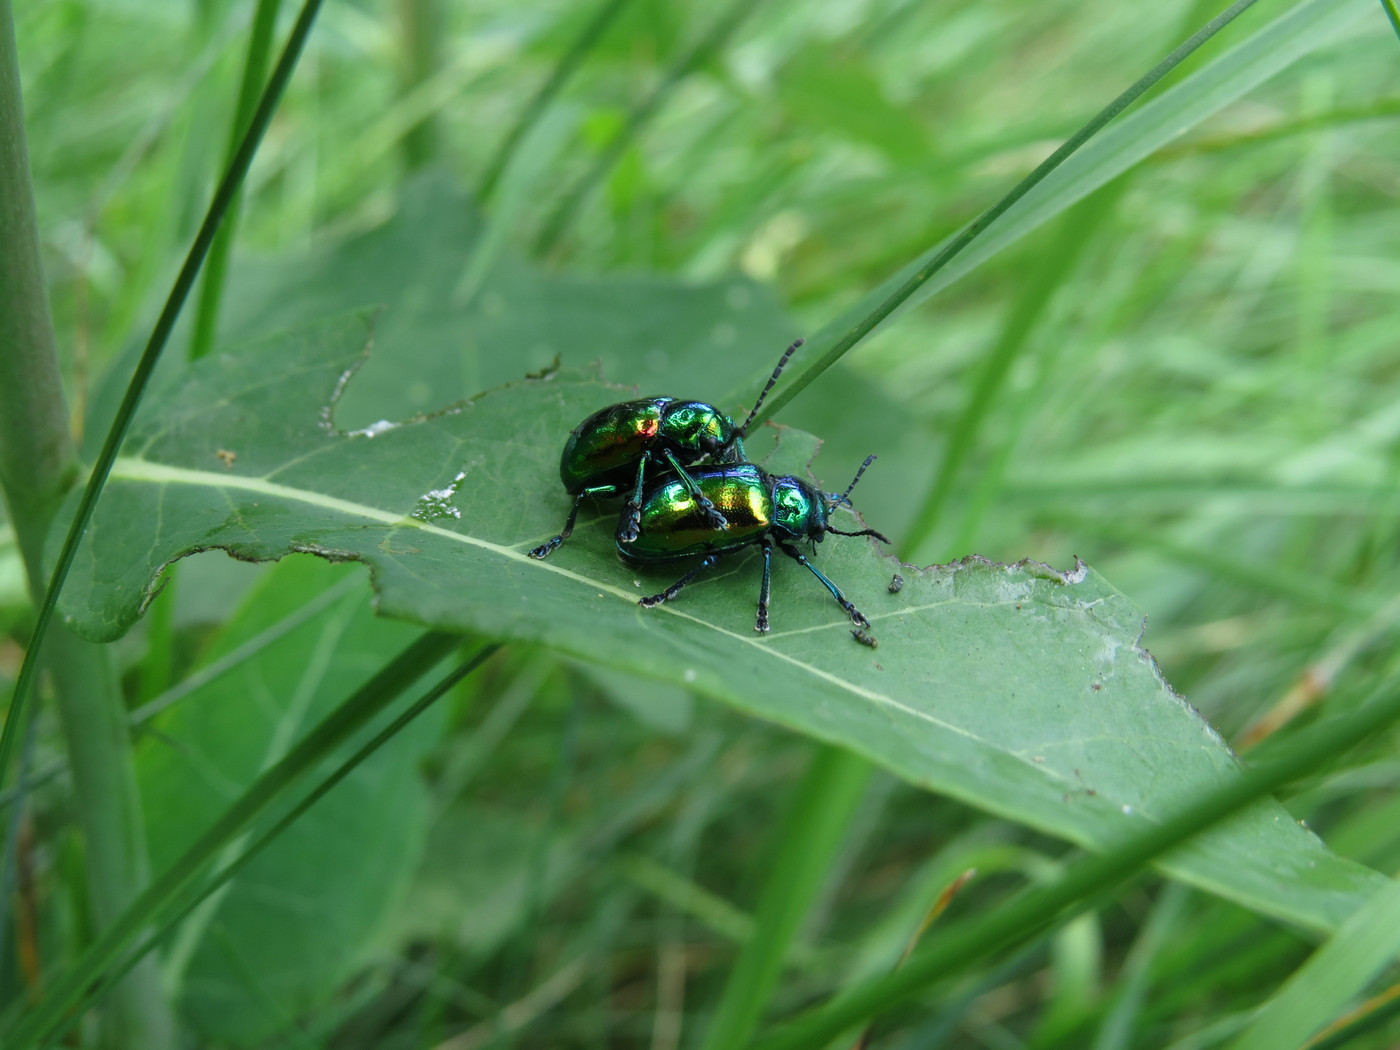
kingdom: Animalia
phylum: Arthropoda
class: Insecta
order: Coleoptera
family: Chrysomelidae
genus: Chrysochus
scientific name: Chrysochus auratus
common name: Dogbane leaf beetle
